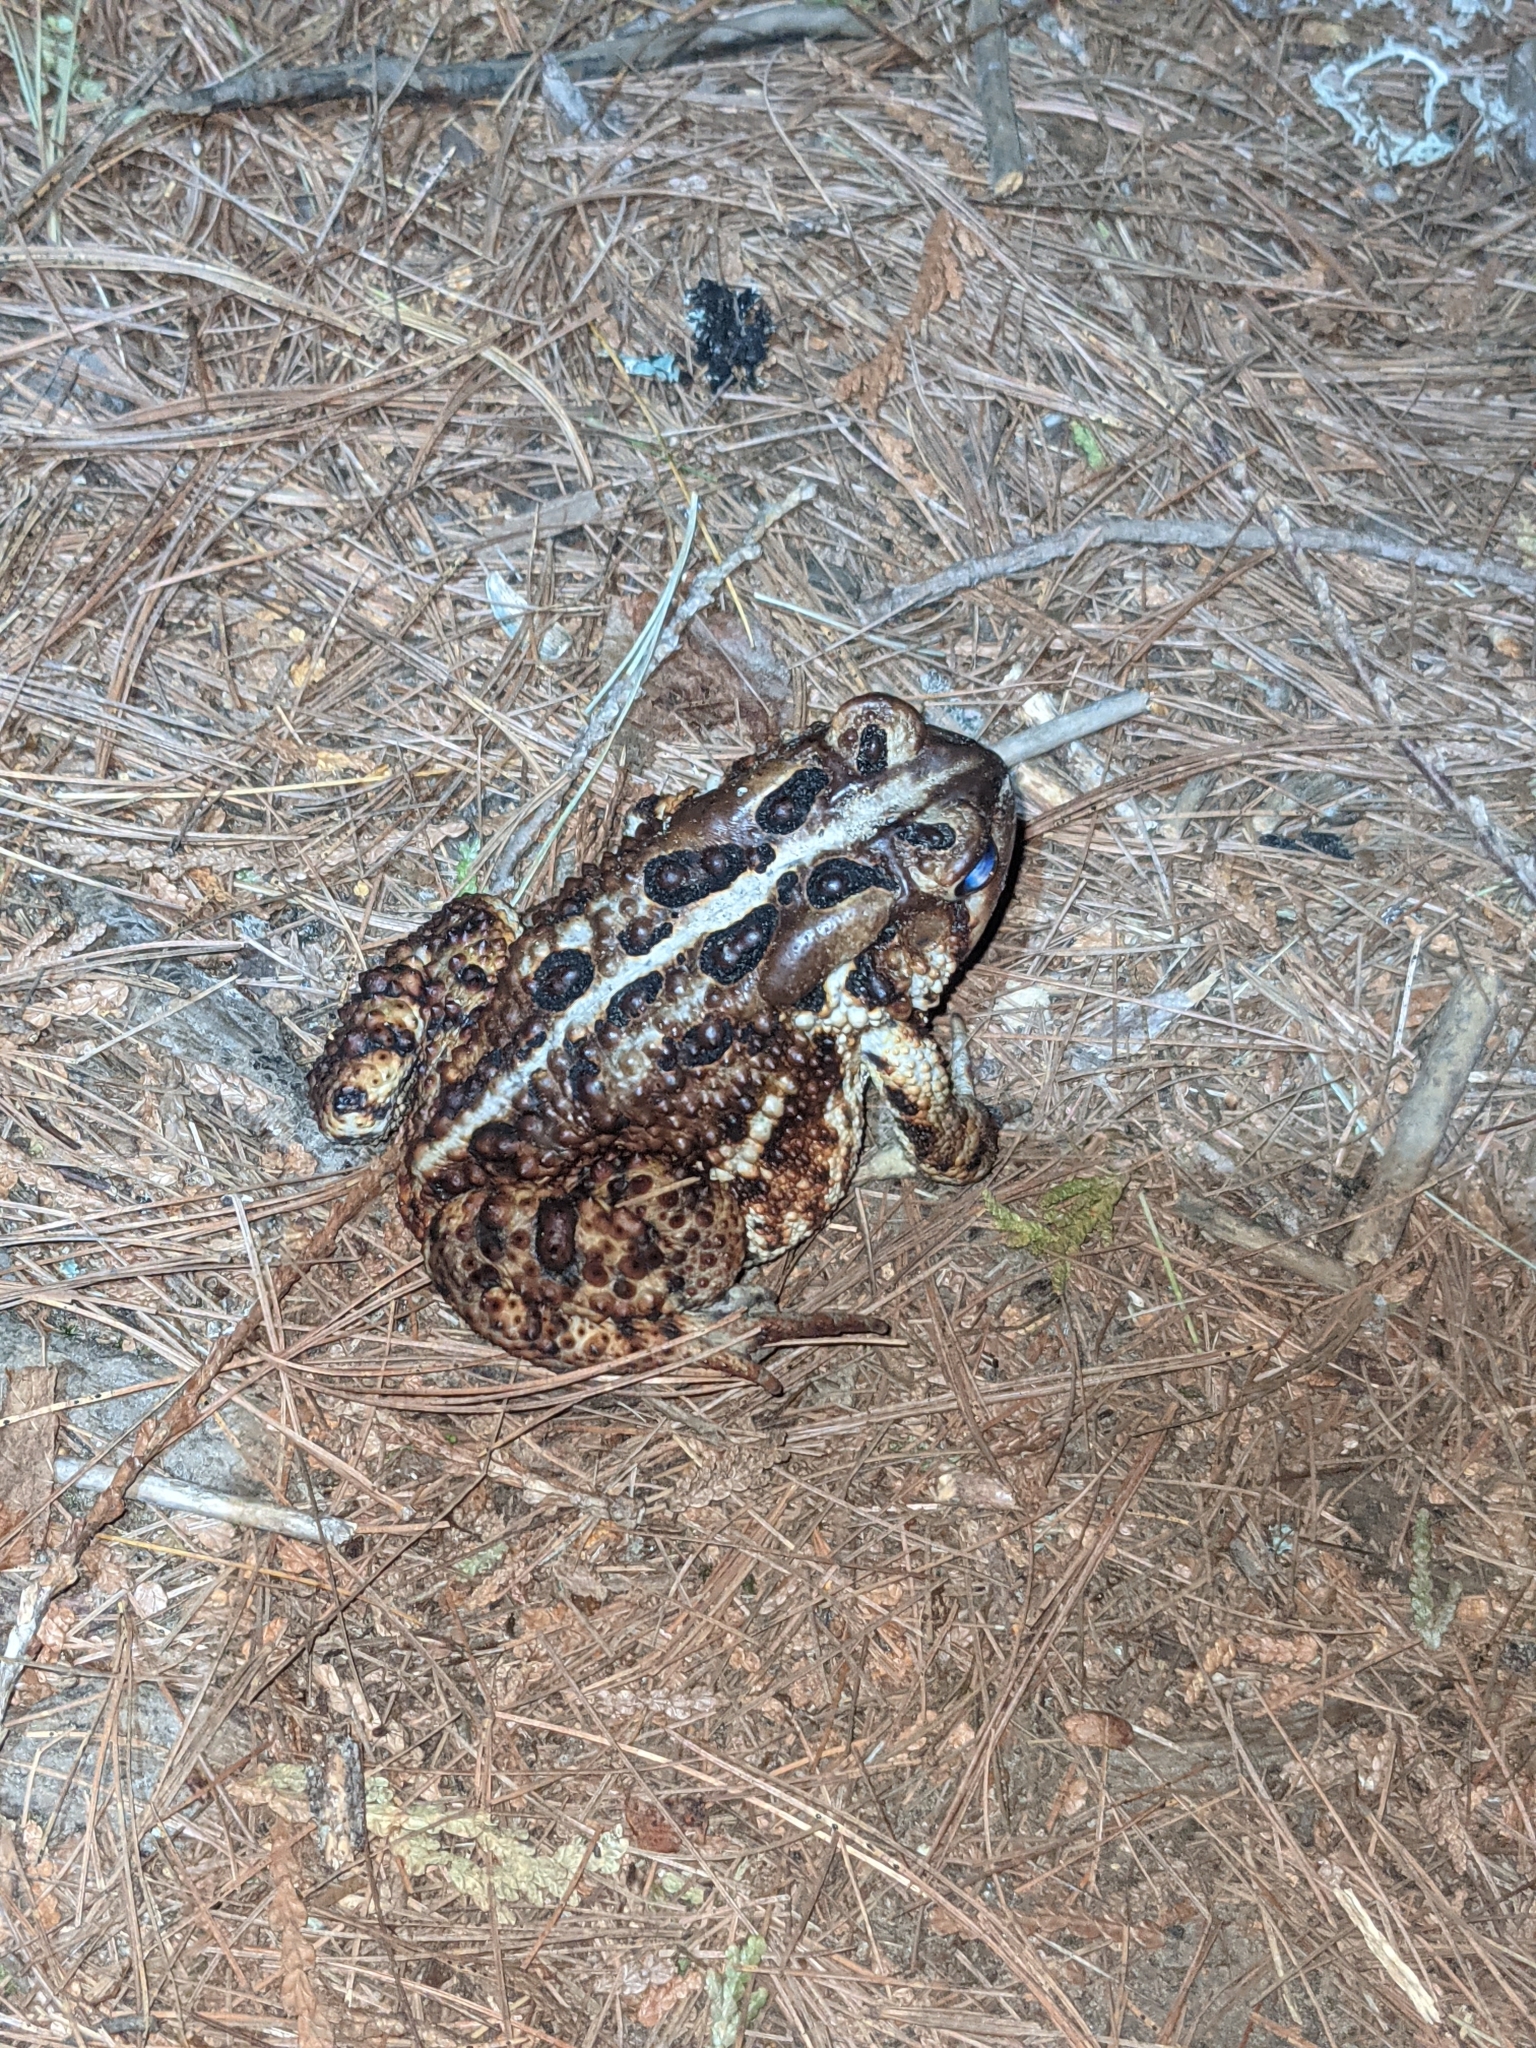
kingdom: Animalia
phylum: Chordata
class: Amphibia
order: Anura
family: Bufonidae
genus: Anaxyrus
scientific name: Anaxyrus americanus
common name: American toad
